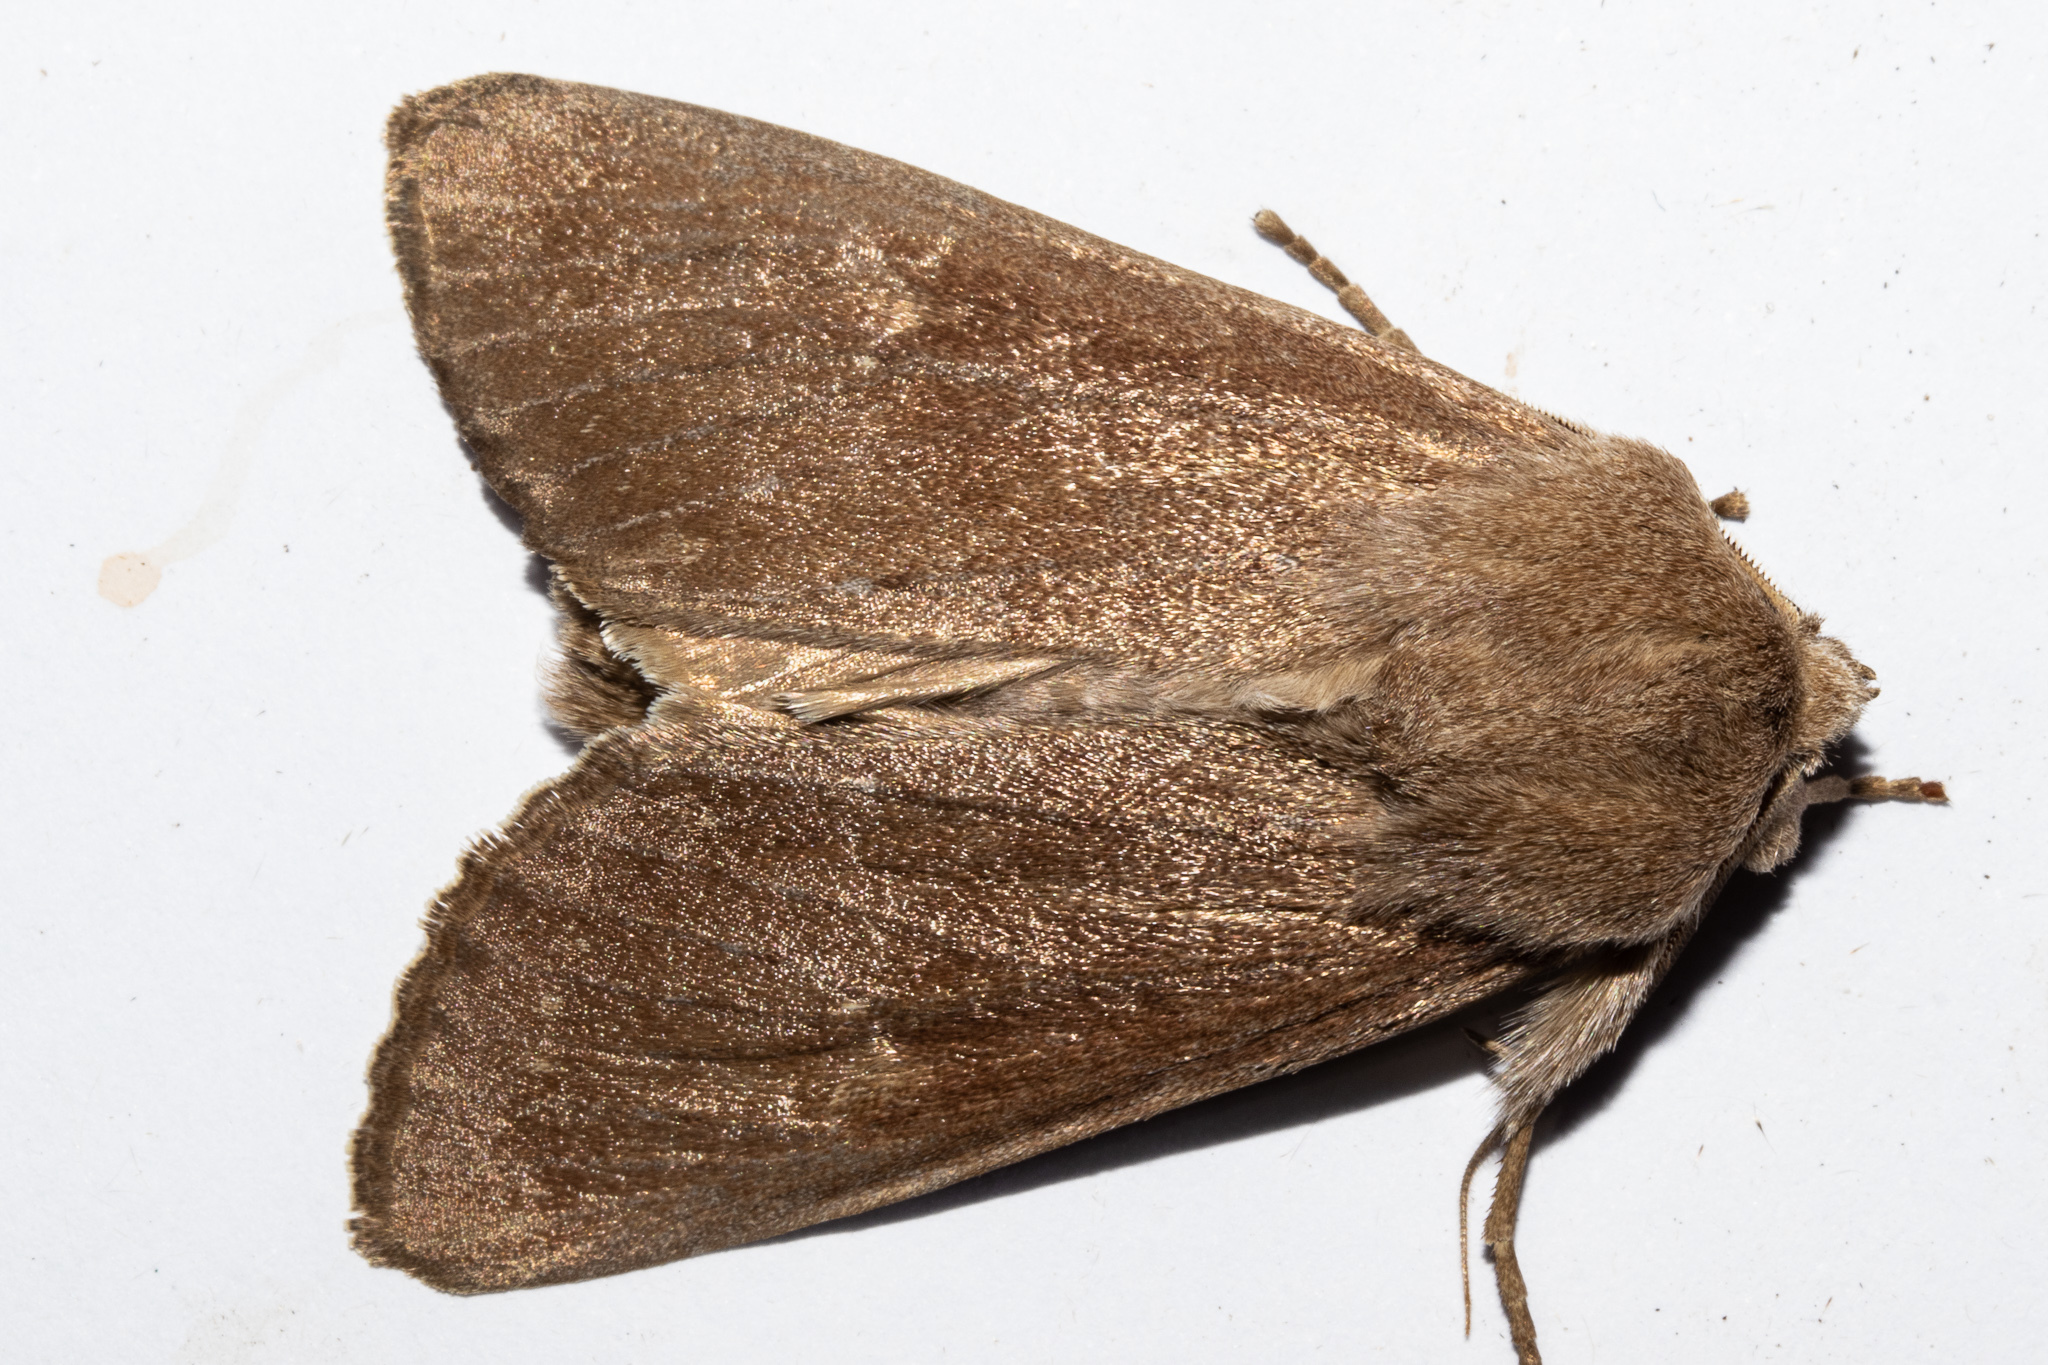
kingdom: Animalia
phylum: Arthropoda
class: Insecta
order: Lepidoptera
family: Noctuidae
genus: Ichneutica
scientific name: Ichneutica nullifera
